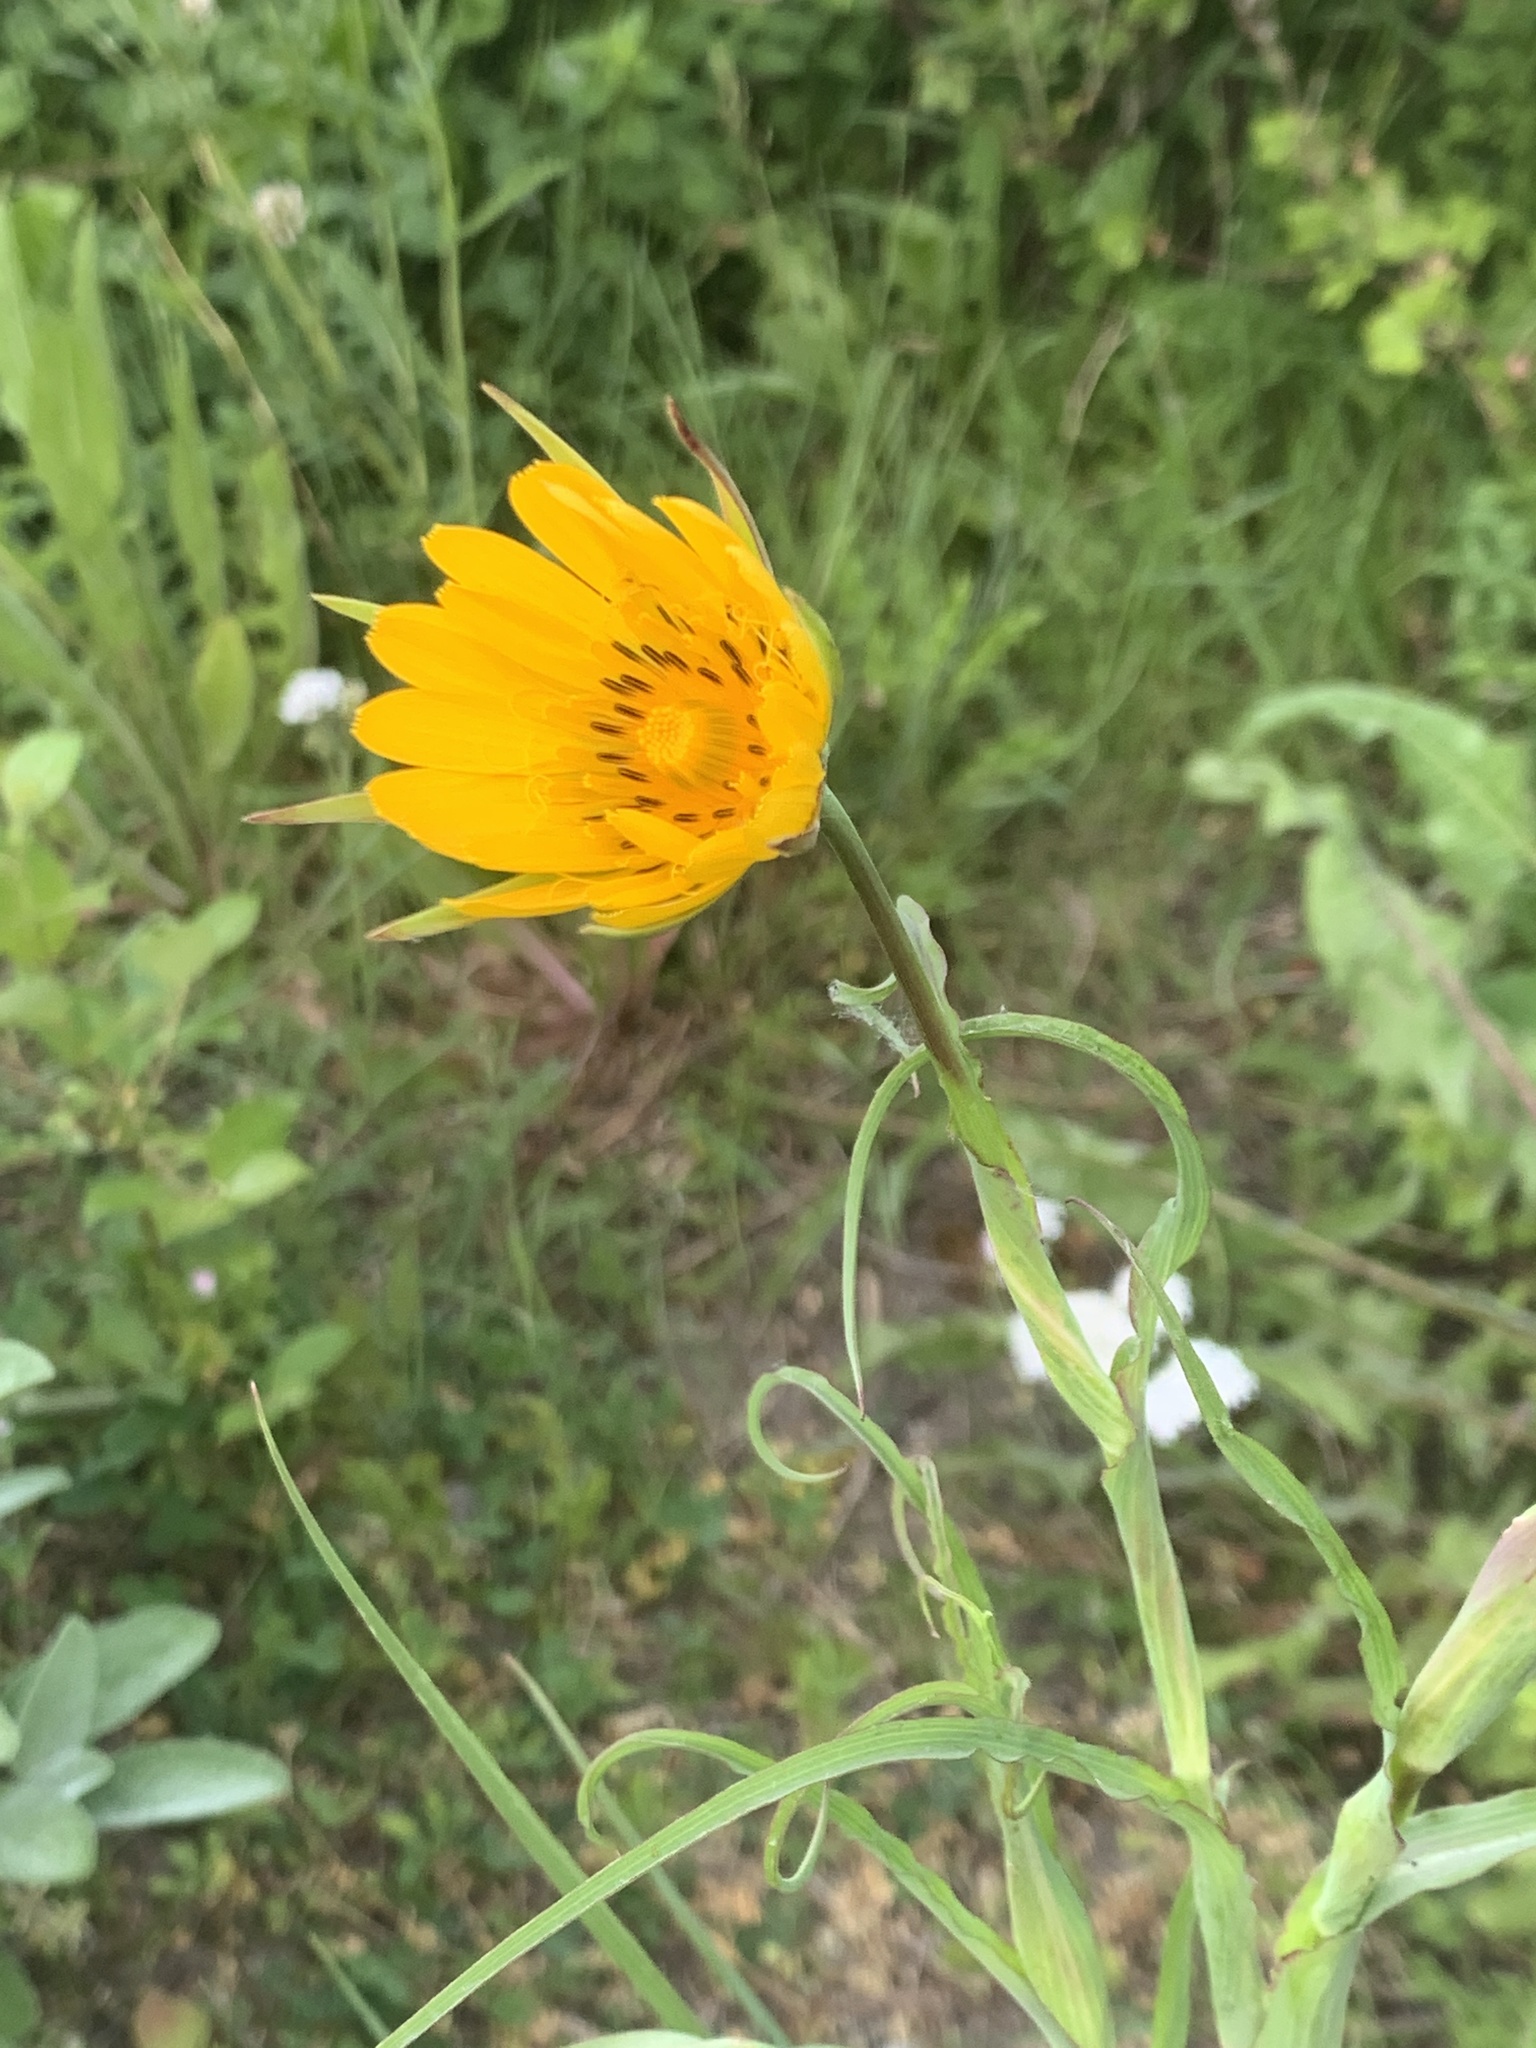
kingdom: Plantae
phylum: Tracheophyta
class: Magnoliopsida
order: Asterales
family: Asteraceae
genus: Tragopogon
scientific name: Tragopogon pratensis
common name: Goat's-beard
